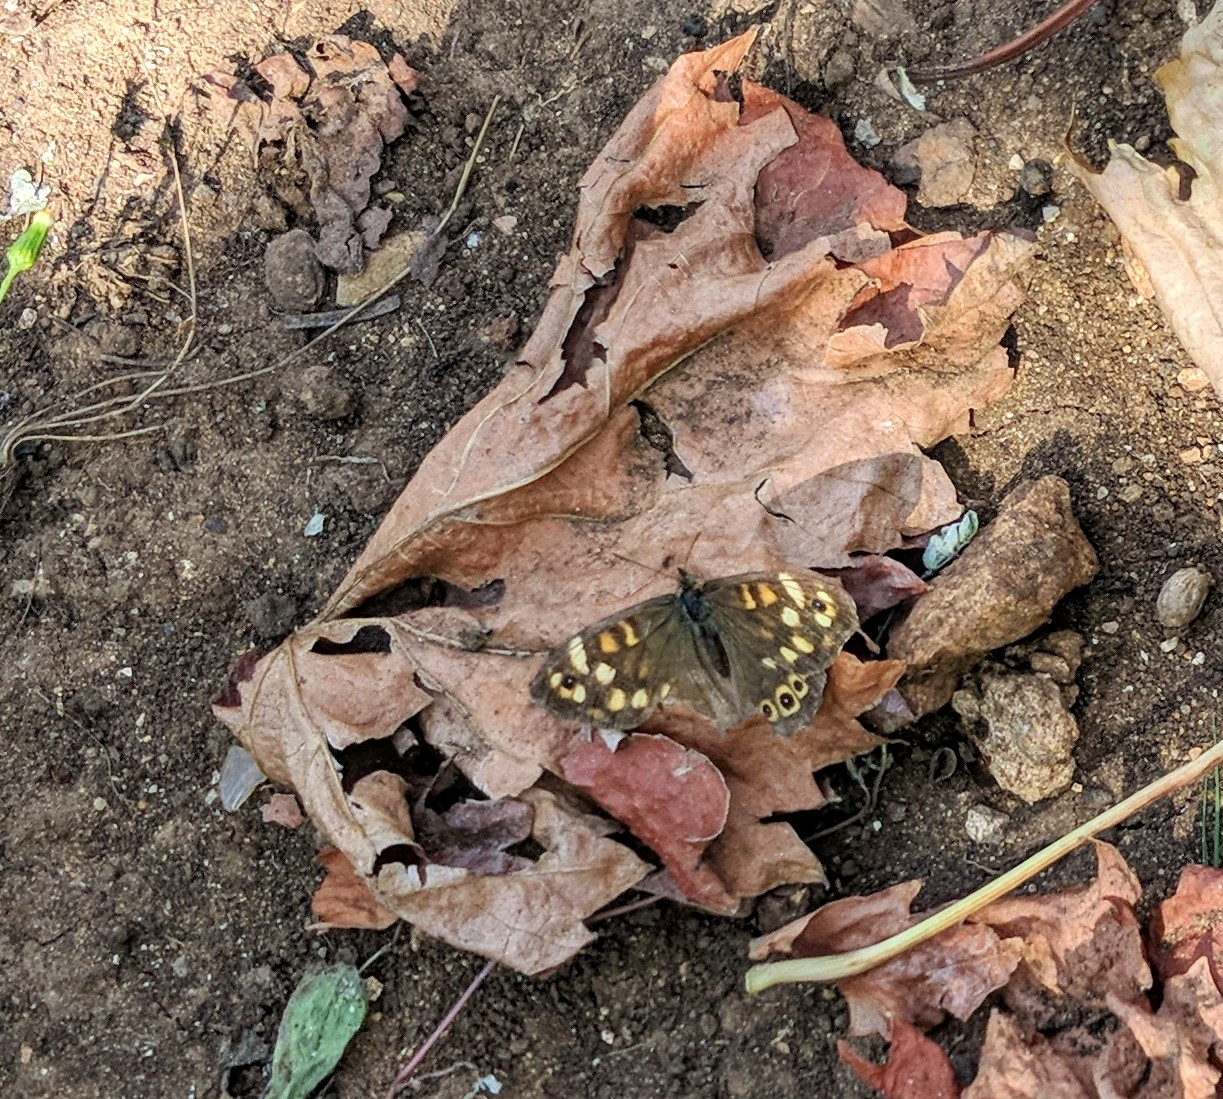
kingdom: Animalia
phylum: Arthropoda
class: Insecta
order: Lepidoptera
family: Nymphalidae
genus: Pararge
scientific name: Pararge aegeria
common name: Speckled wood
